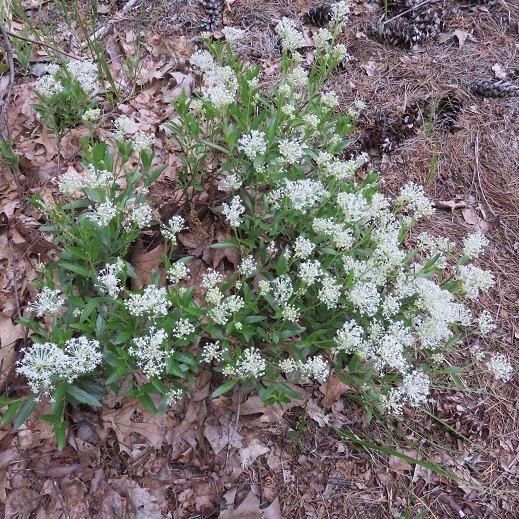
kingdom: Plantae
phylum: Tracheophyta
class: Magnoliopsida
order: Rosales
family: Rhamnaceae
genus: Ceanothus
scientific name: Ceanothus herbaceus
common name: Inland ceanothus
